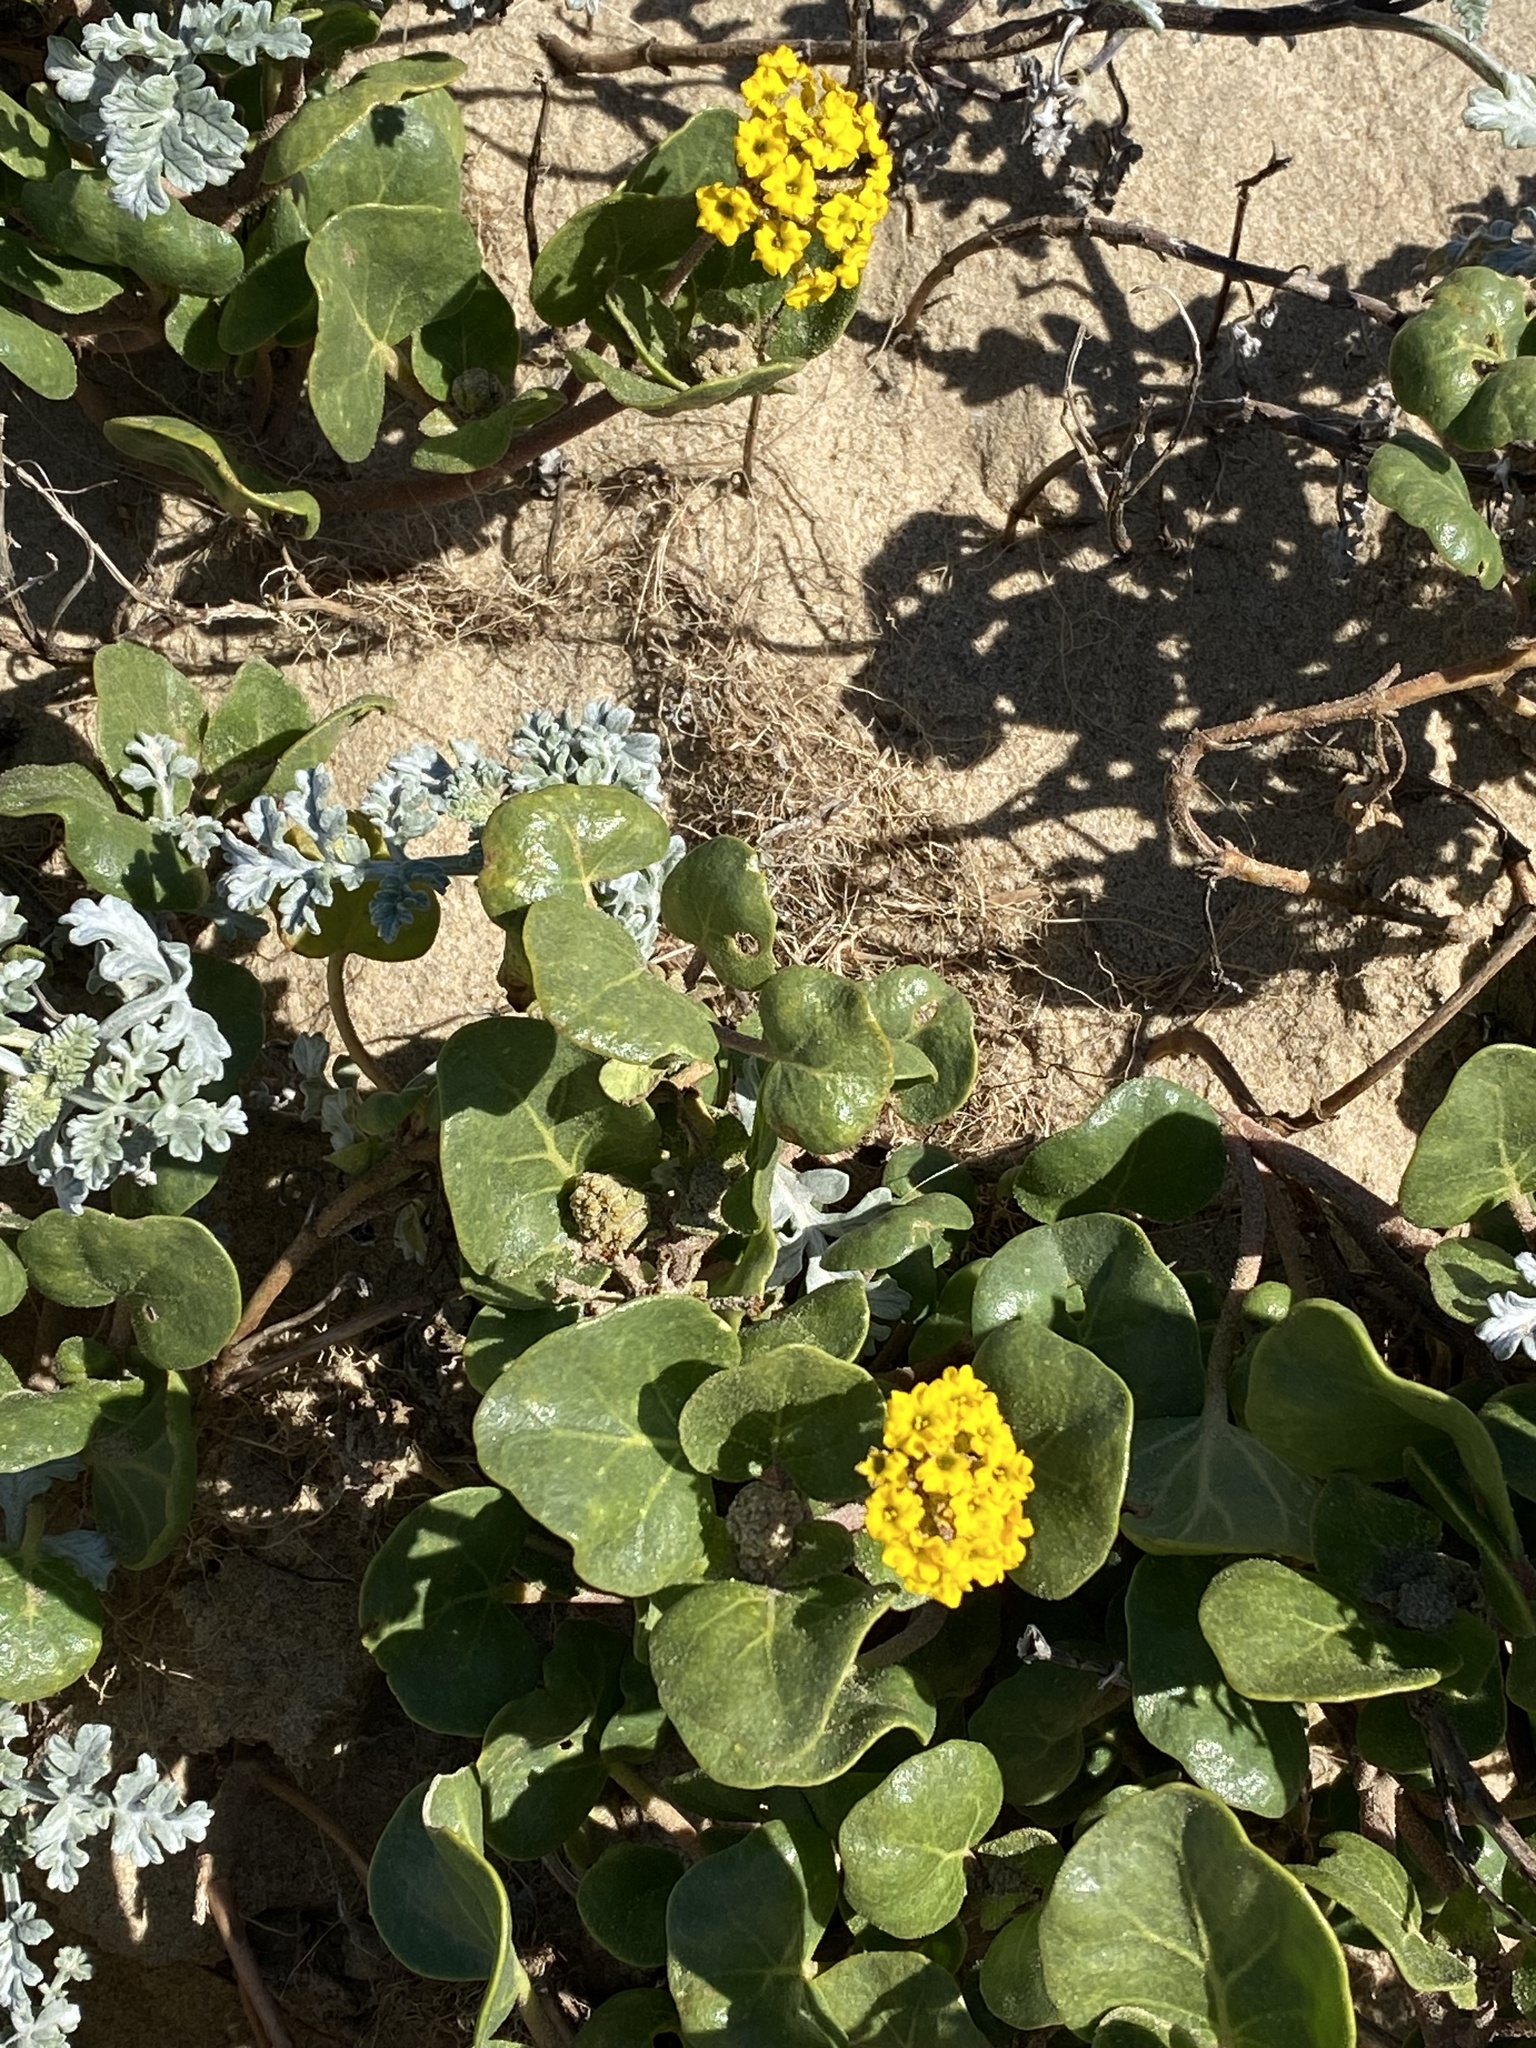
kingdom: Plantae
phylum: Tracheophyta
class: Magnoliopsida
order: Caryophyllales
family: Nyctaginaceae
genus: Abronia
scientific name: Abronia latifolia
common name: Yellow sand-verbena
